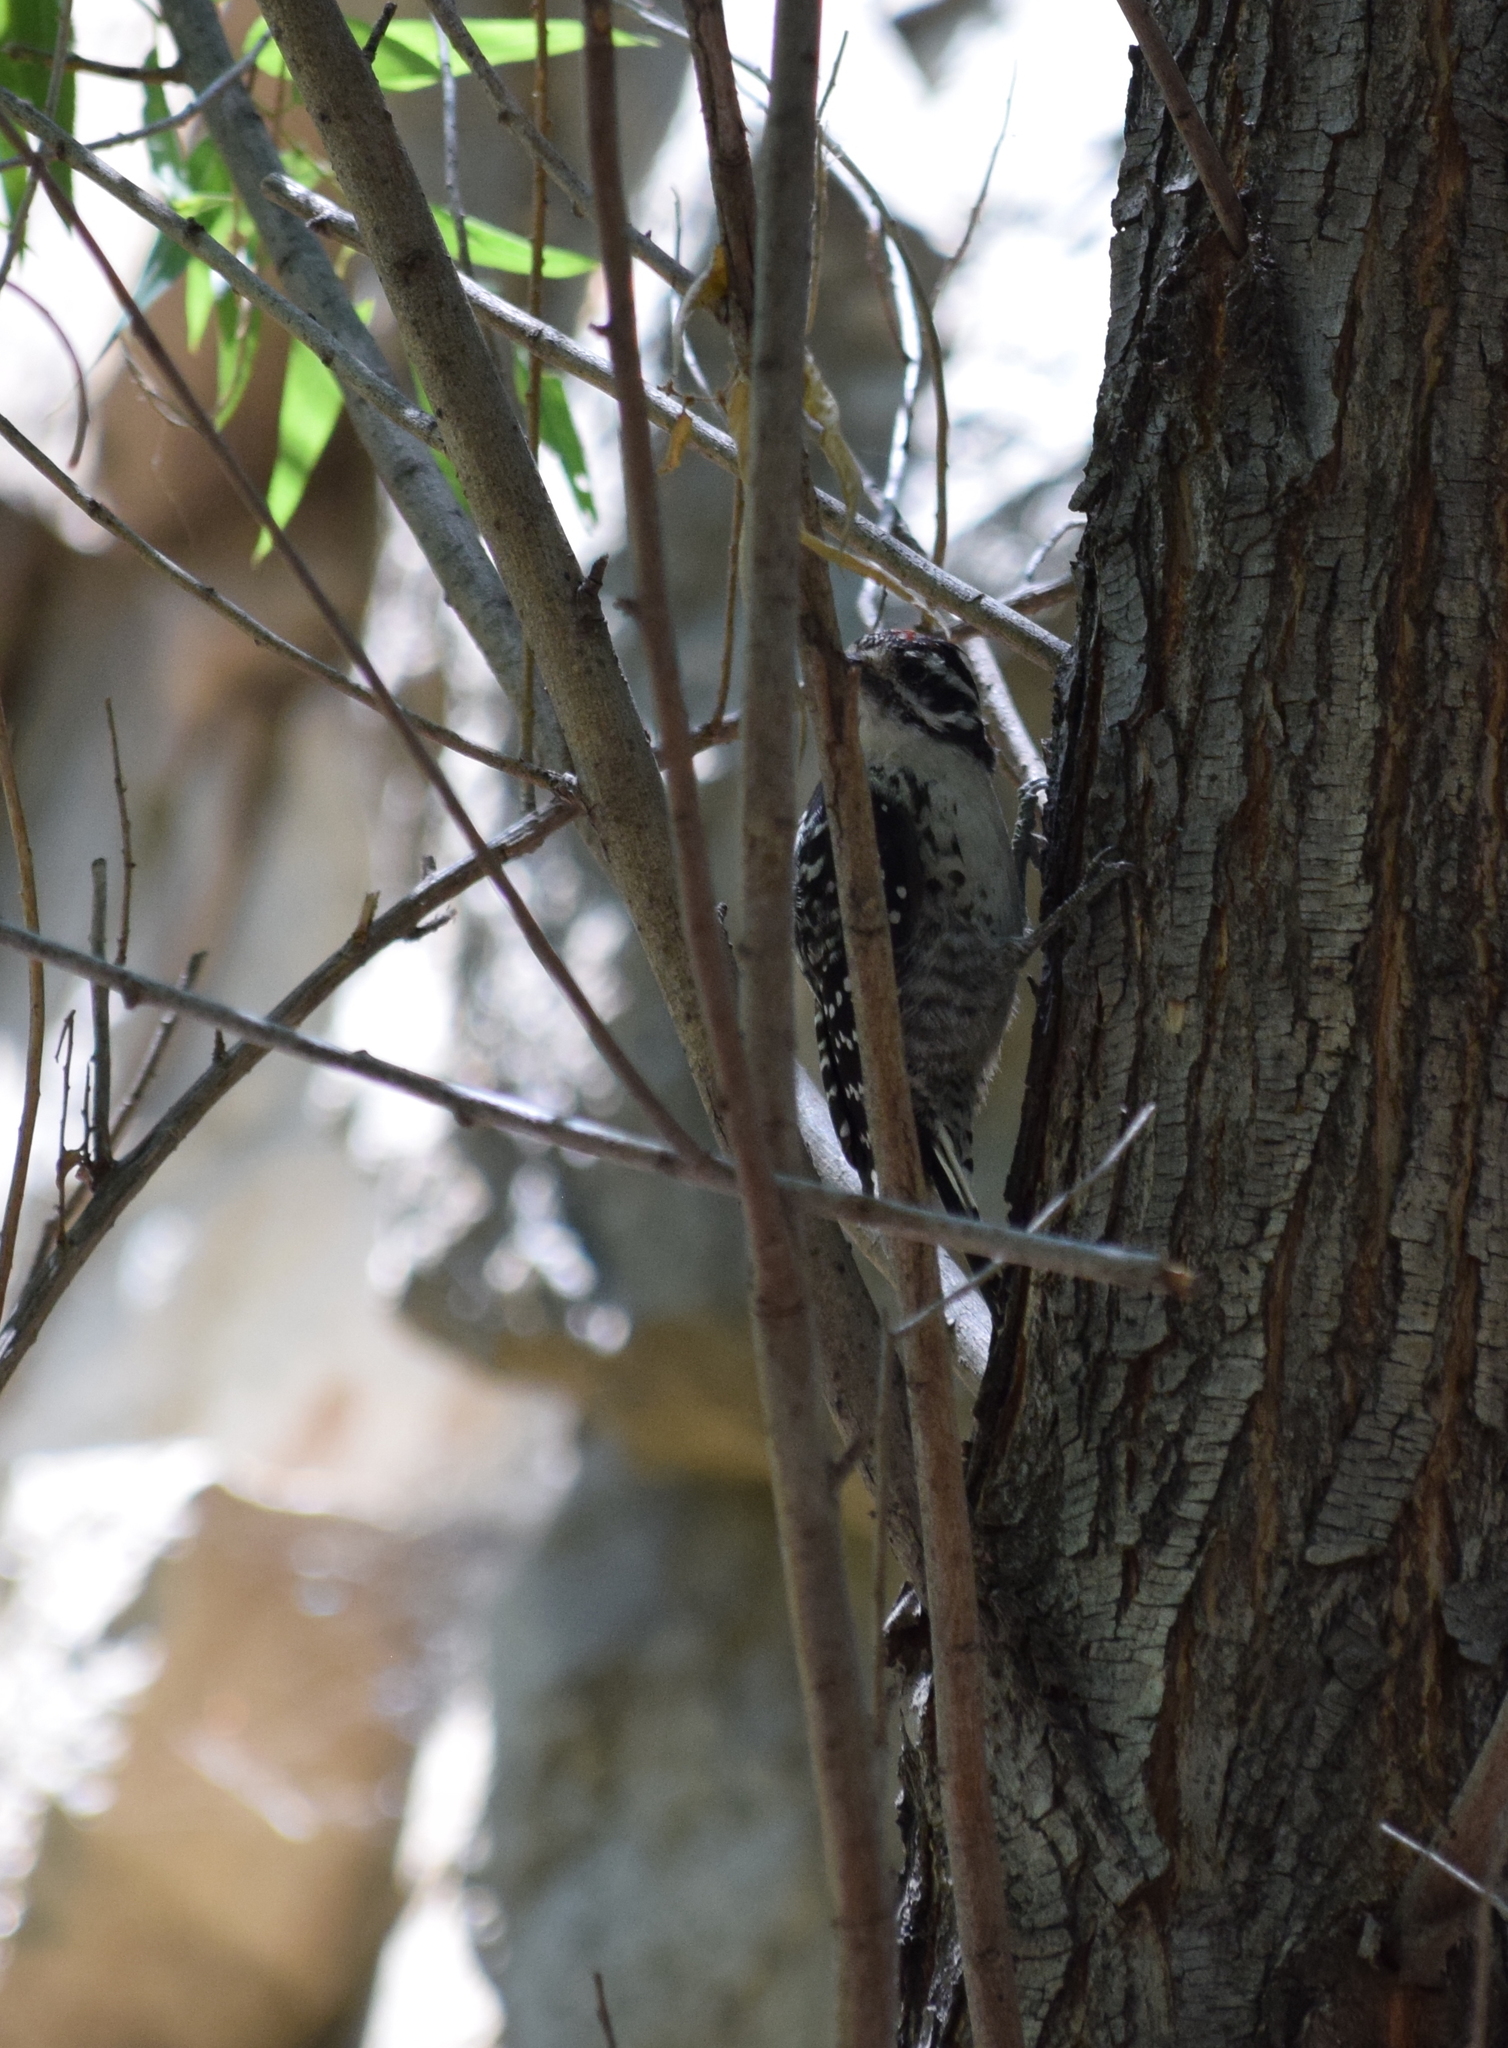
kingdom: Animalia
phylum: Chordata
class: Aves
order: Piciformes
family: Picidae
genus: Dryobates
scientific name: Dryobates nuttallii
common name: Nuttall's woodpecker
